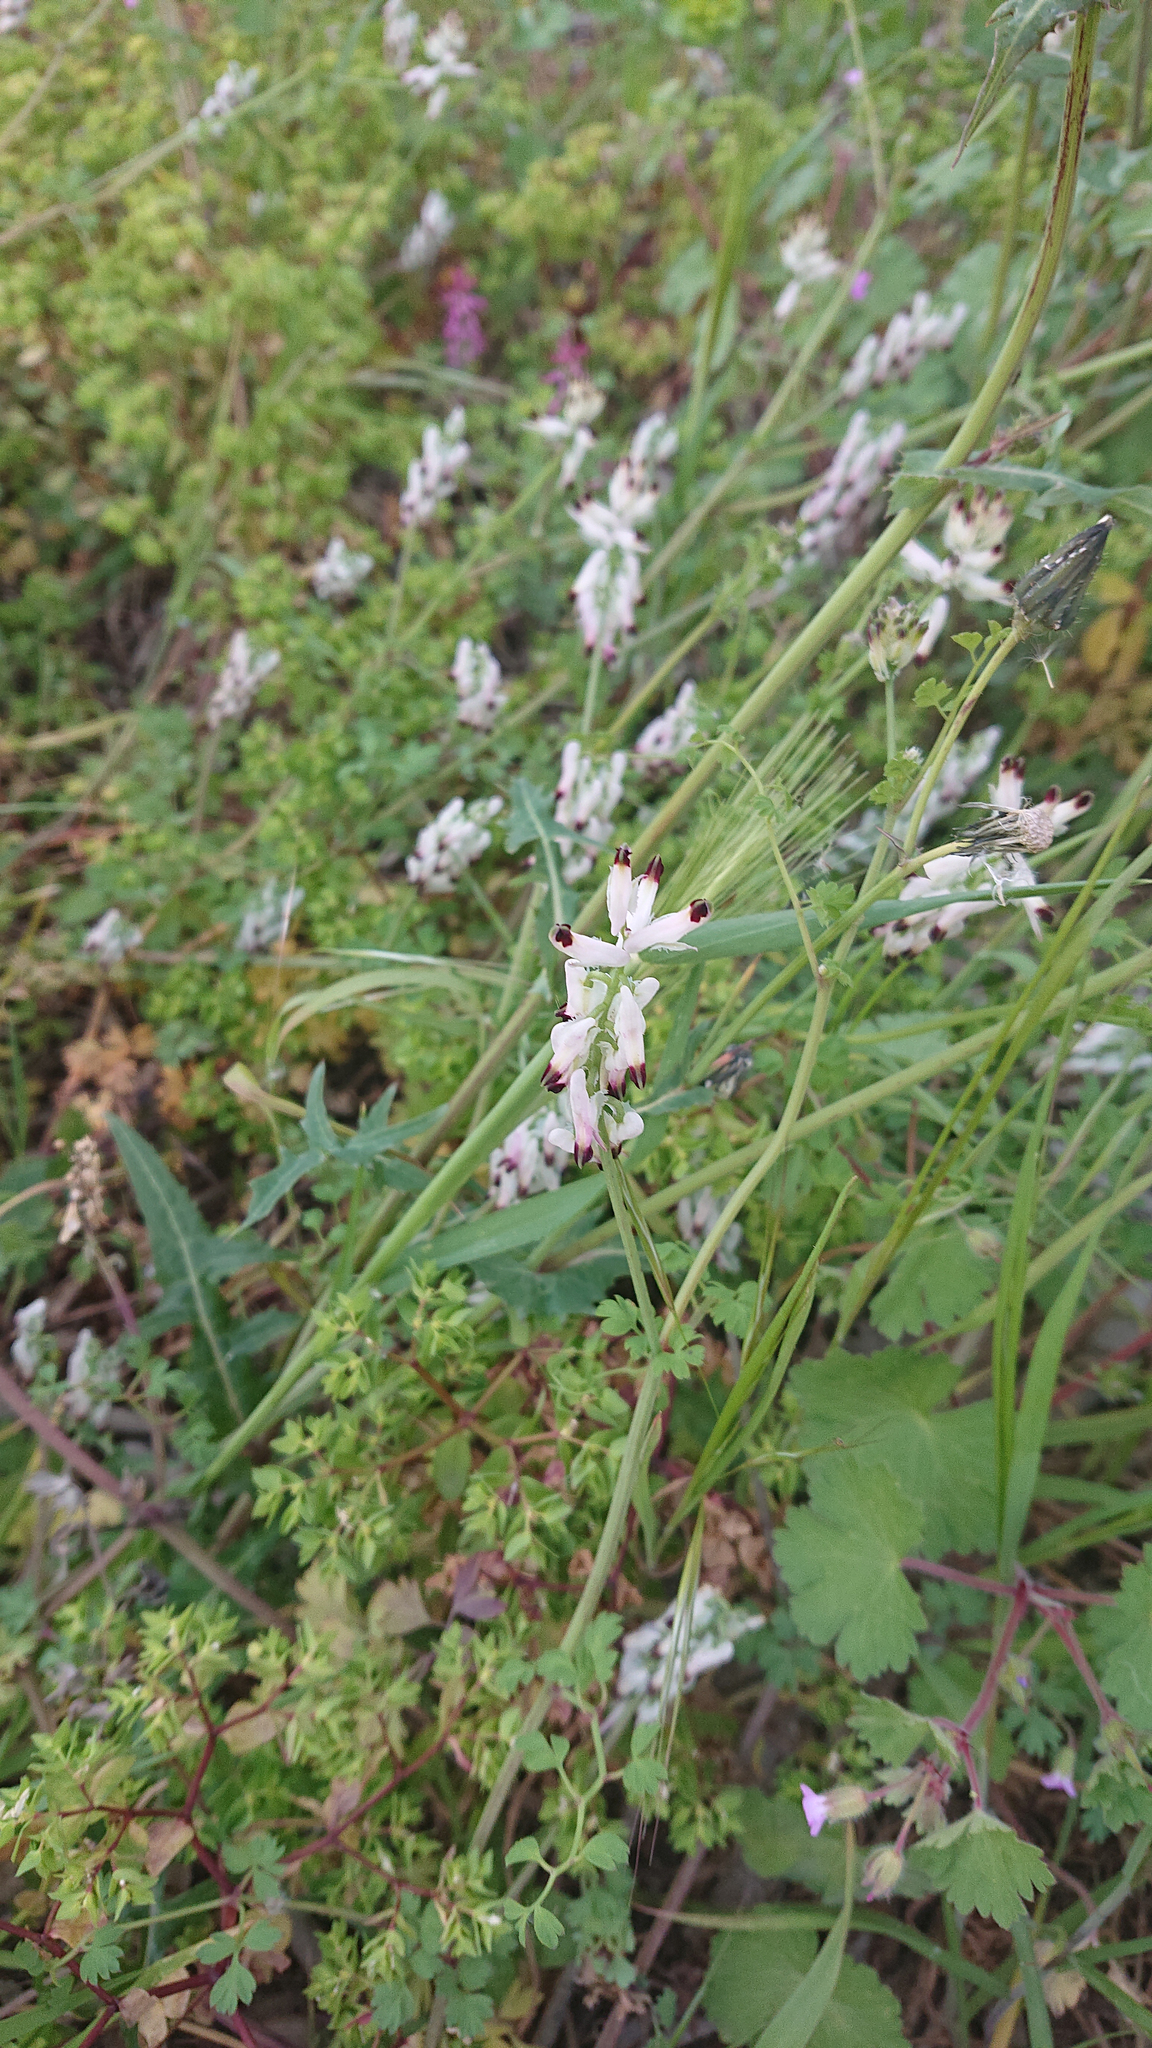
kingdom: Plantae
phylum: Tracheophyta
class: Magnoliopsida
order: Ranunculales
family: Papaveraceae
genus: Fumaria
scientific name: Fumaria capreolata
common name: White ramping-fumitory
